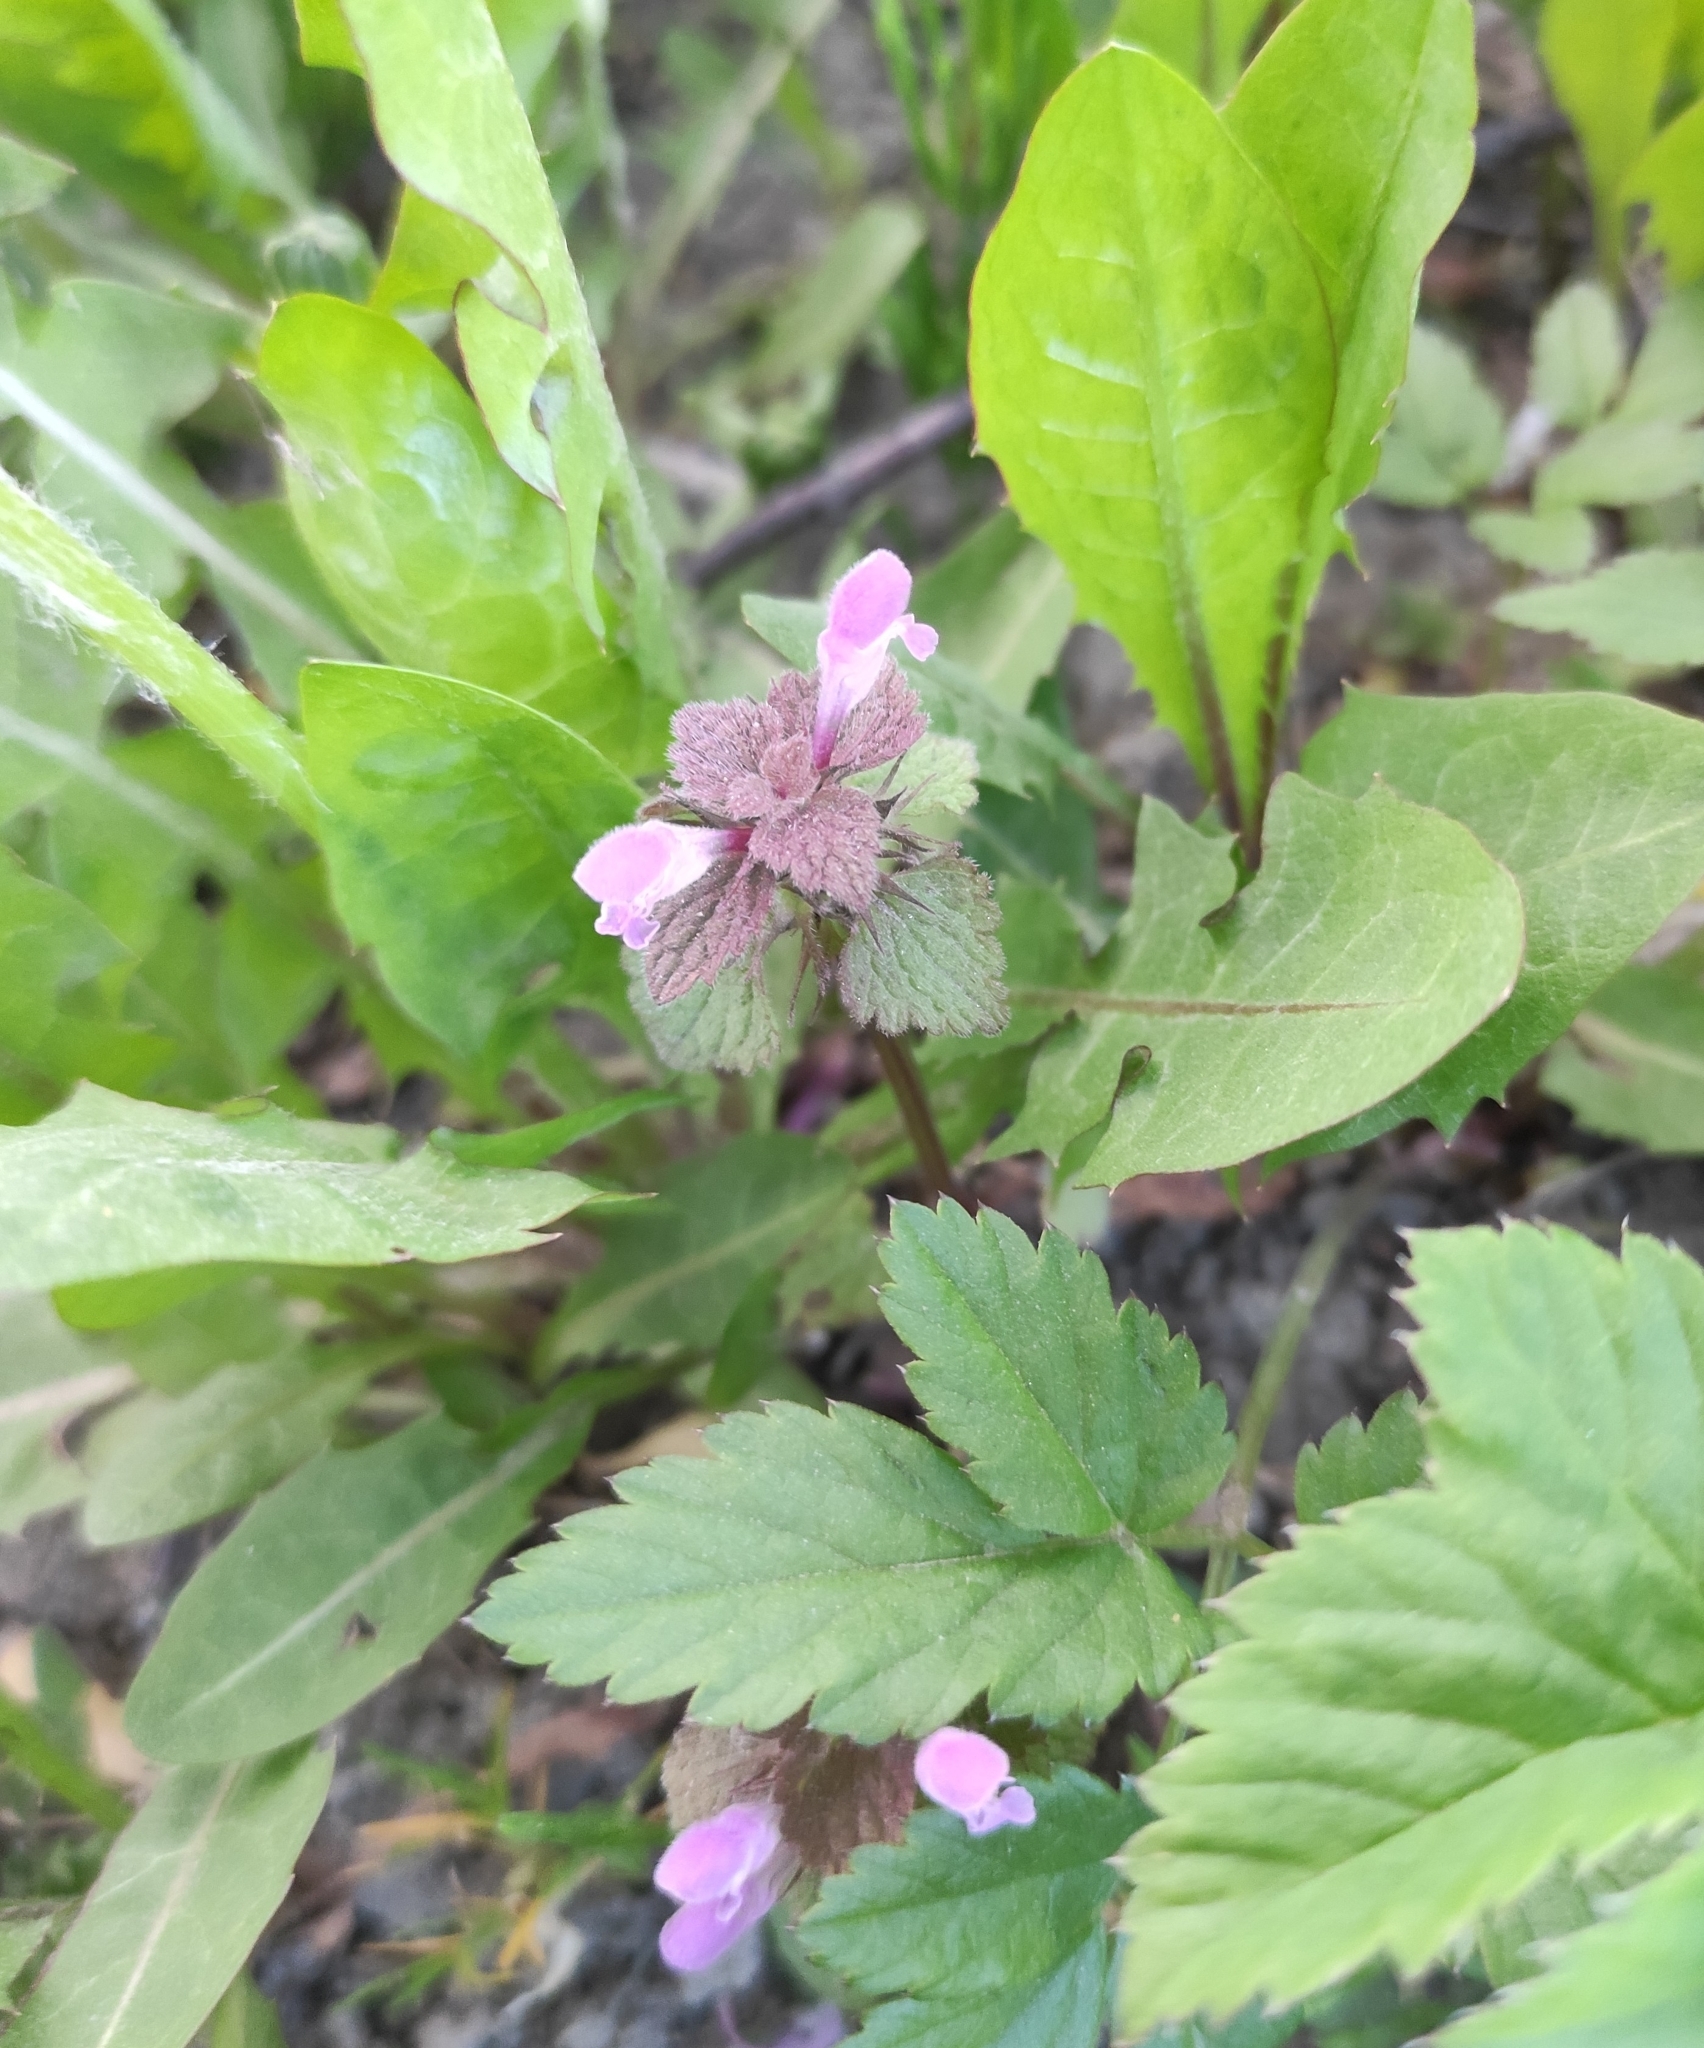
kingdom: Plantae
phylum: Tracheophyta
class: Magnoliopsida
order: Lamiales
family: Lamiaceae
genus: Lamium
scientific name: Lamium purpureum
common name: Red dead-nettle
